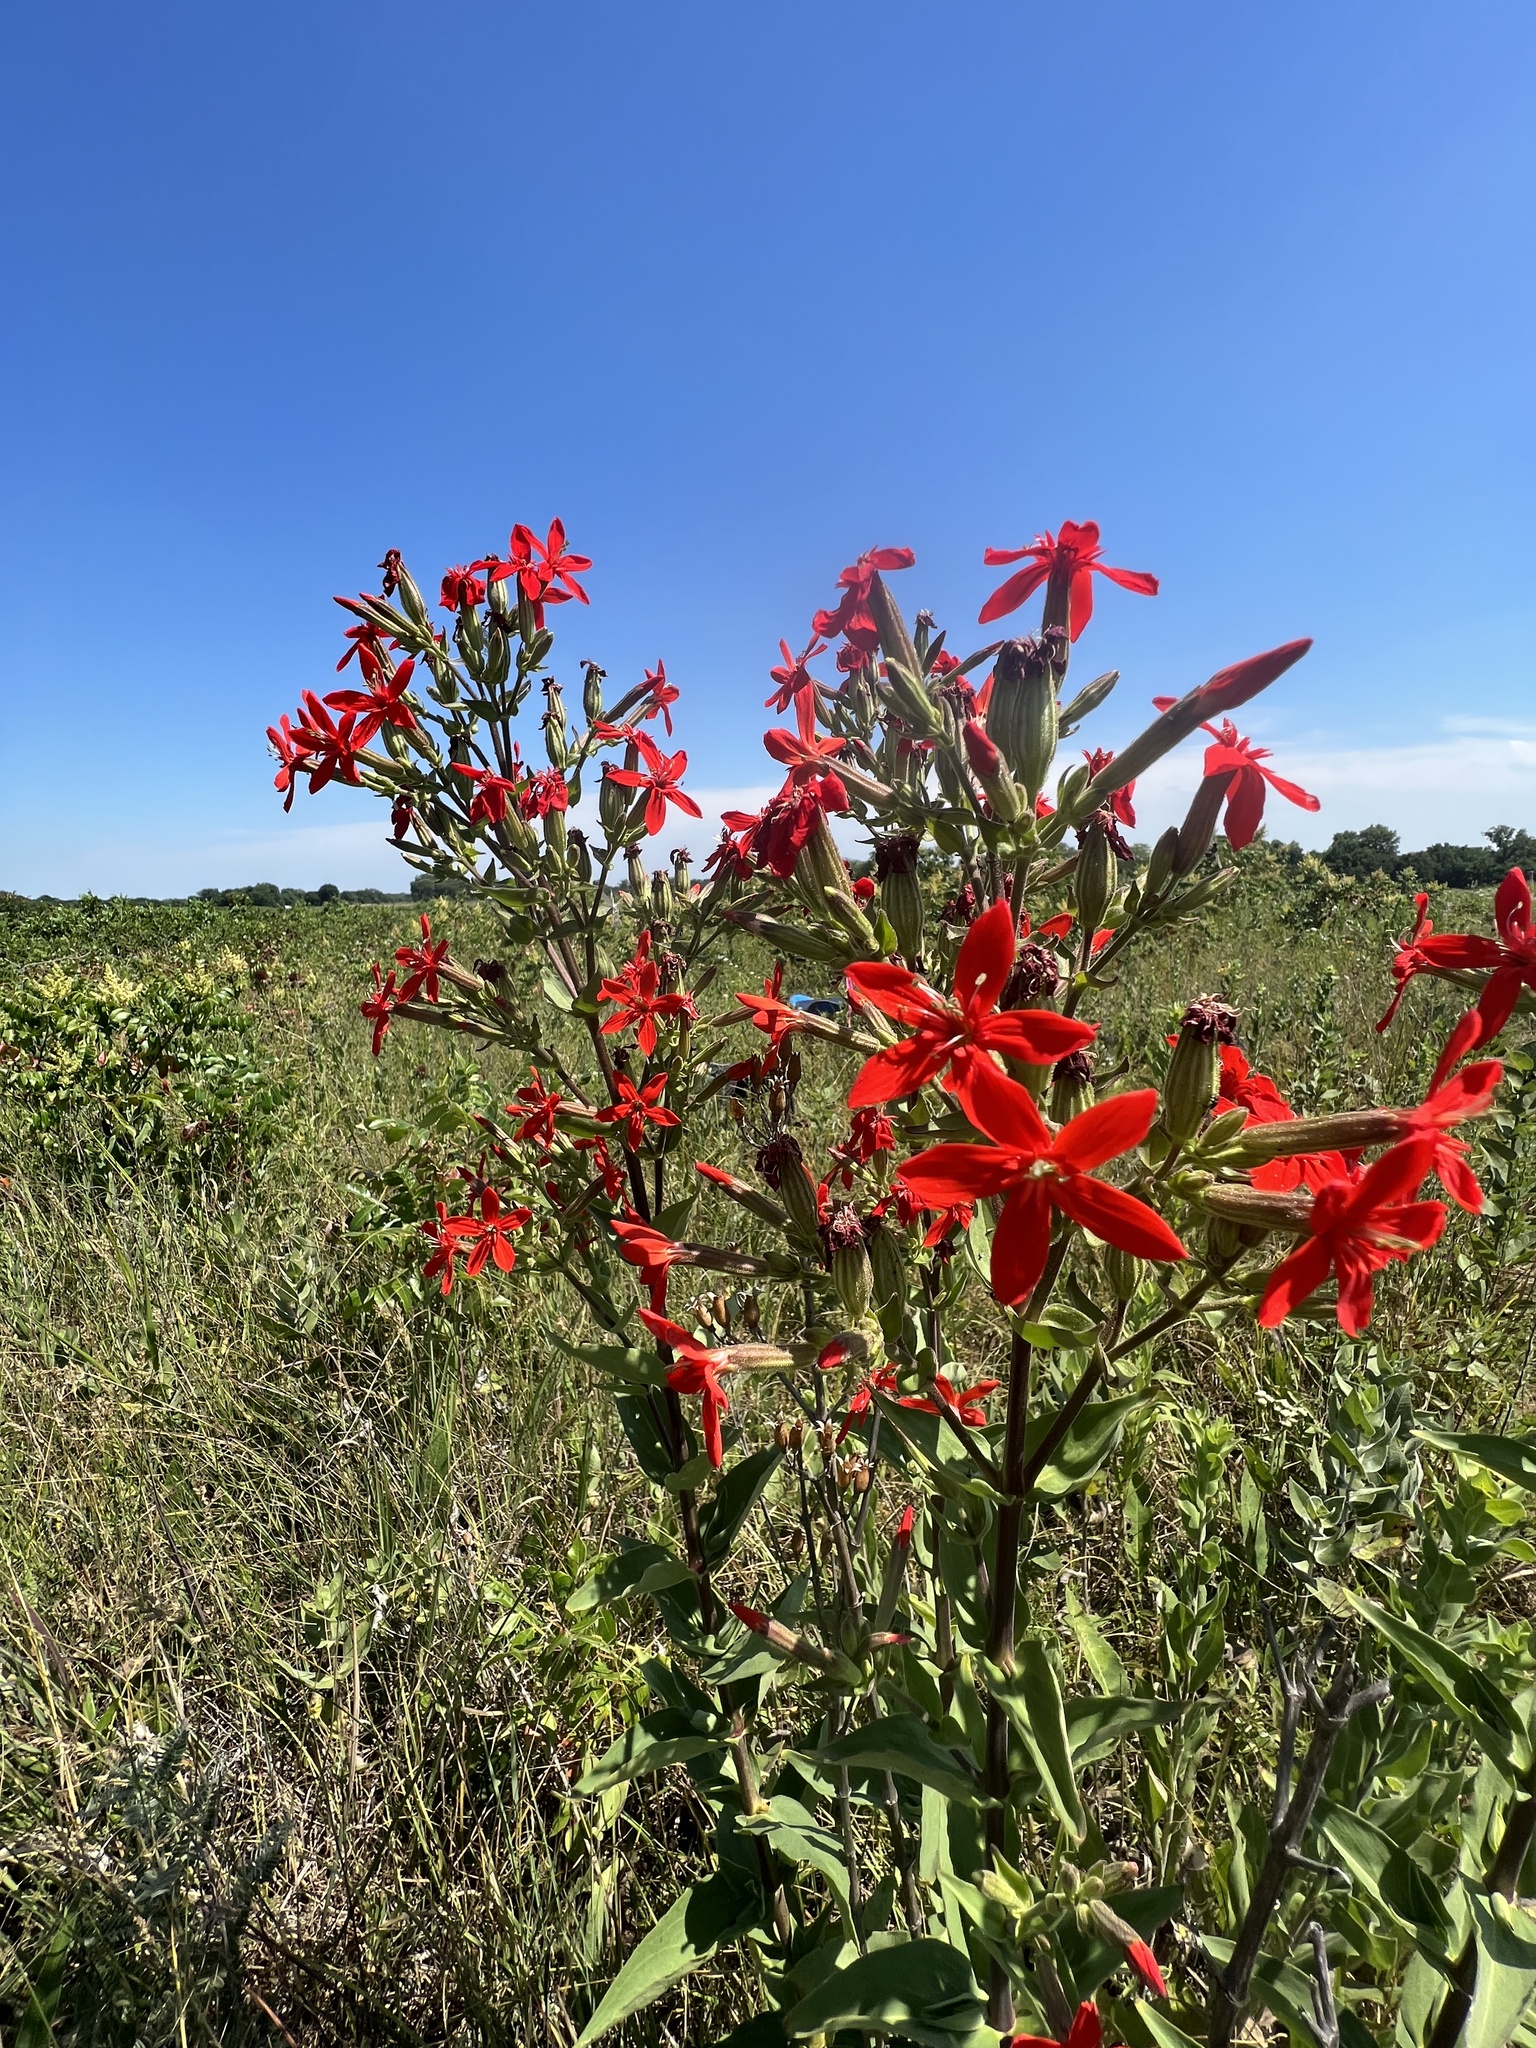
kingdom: Plantae
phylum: Tracheophyta
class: Magnoliopsida
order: Caryophyllales
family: Caryophyllaceae
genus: Silene
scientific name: Silene regia
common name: Royal catchfly
